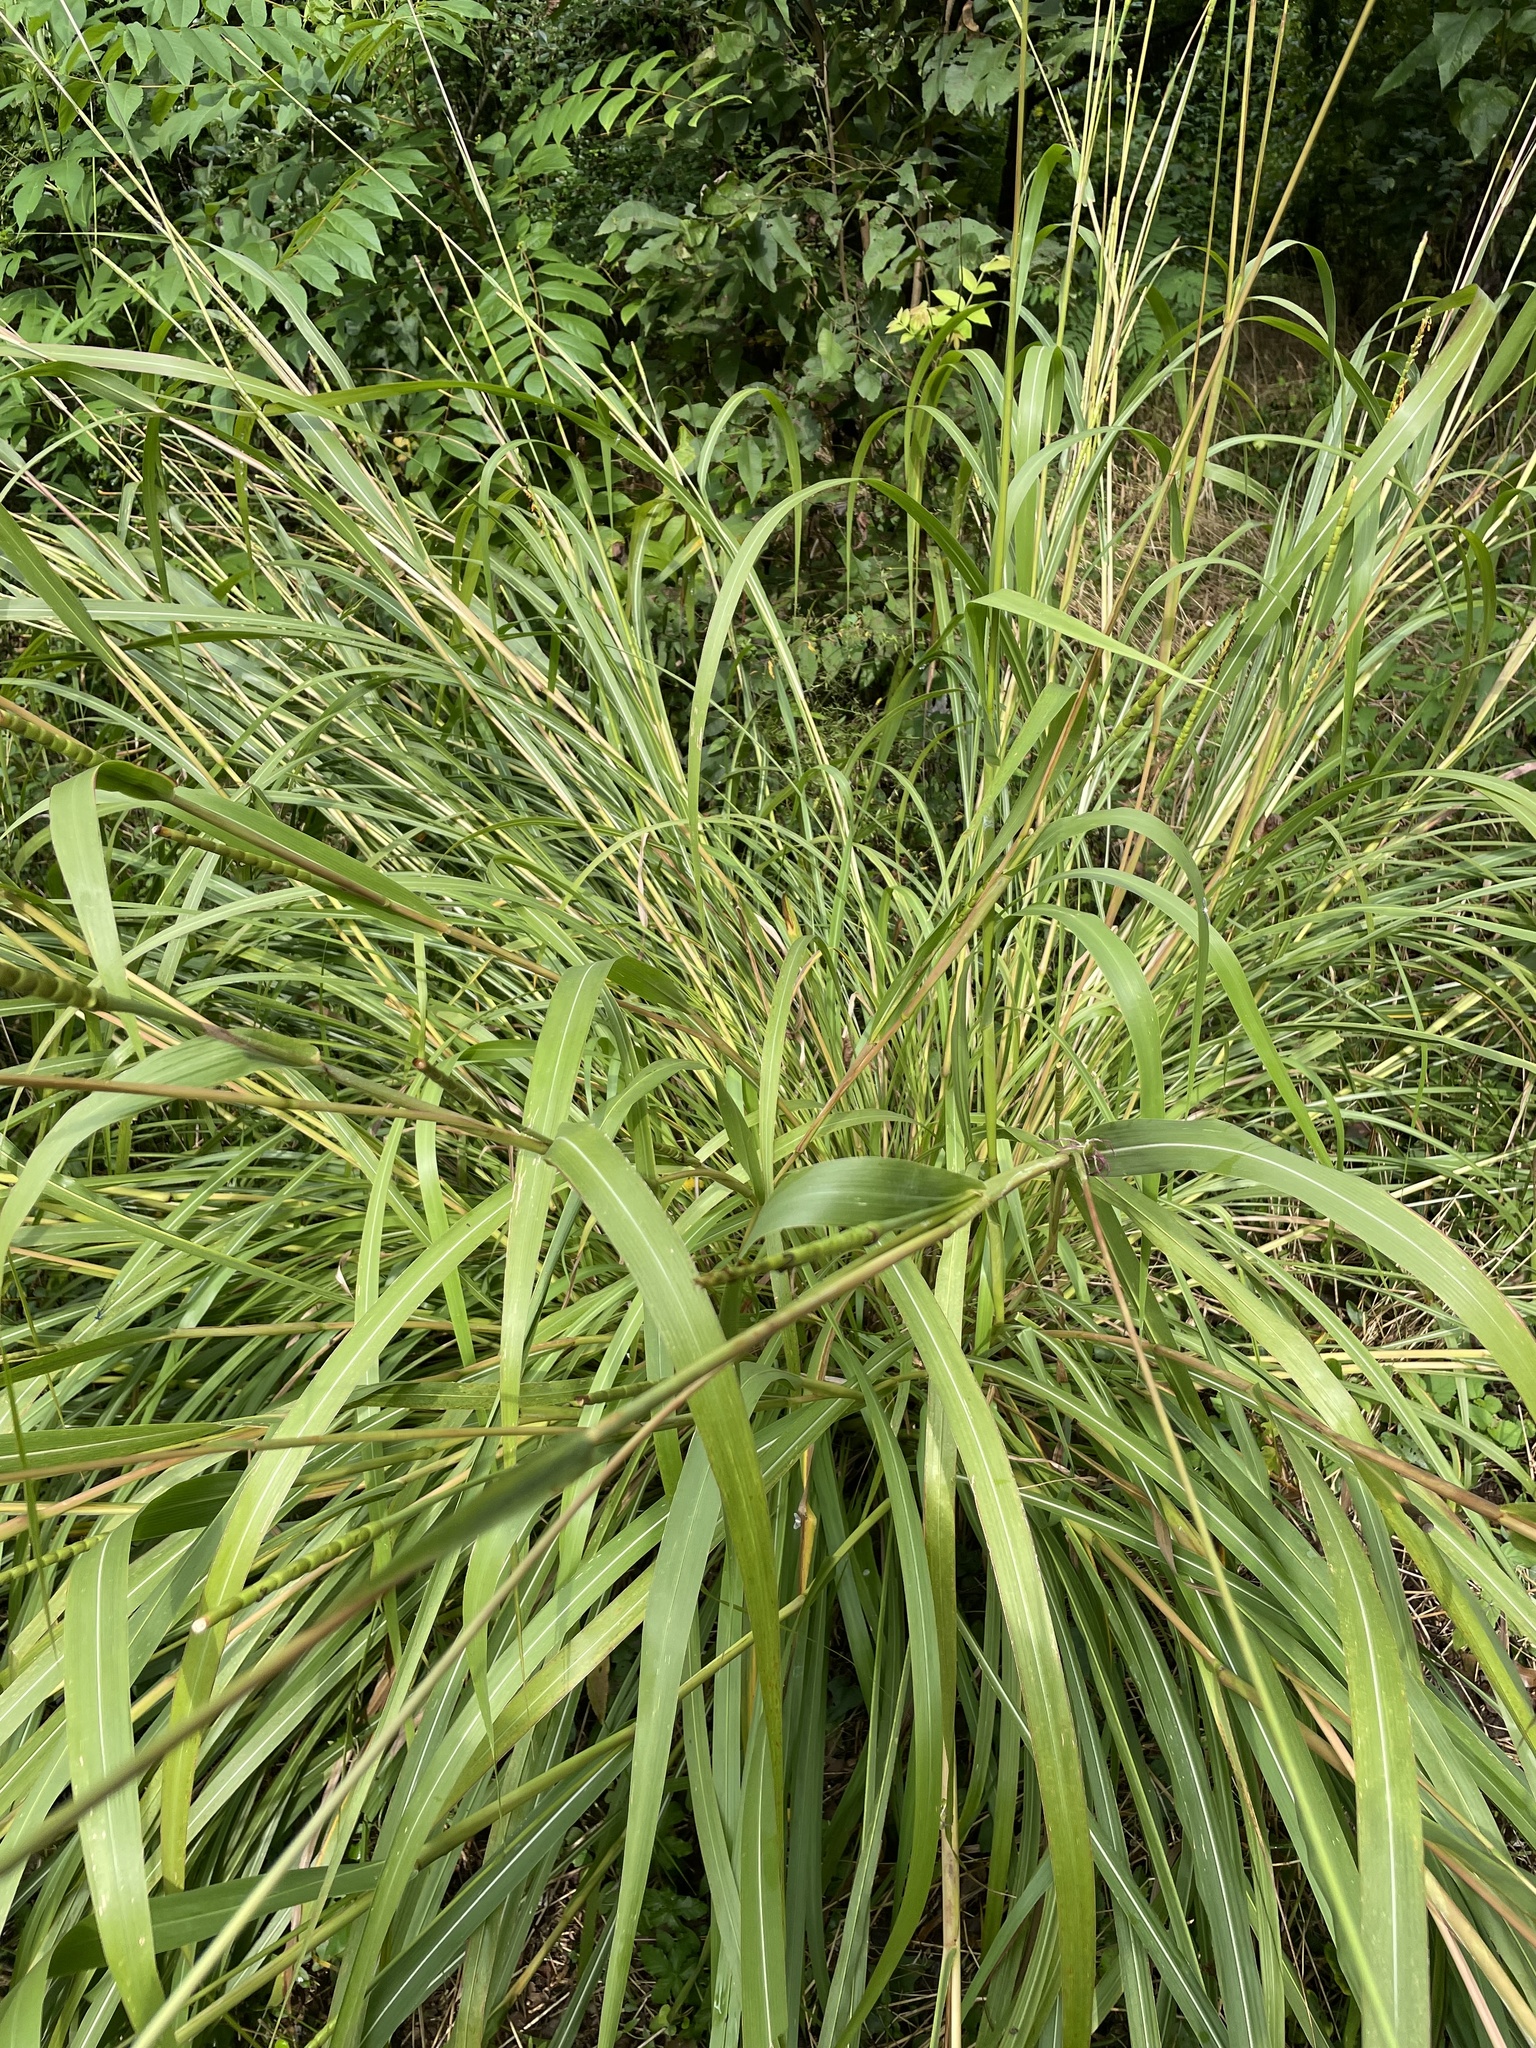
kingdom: Plantae
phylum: Tracheophyta
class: Liliopsida
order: Poales
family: Poaceae
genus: Tripsacum
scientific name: Tripsacum dactyloides
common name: Buffalo-grass
